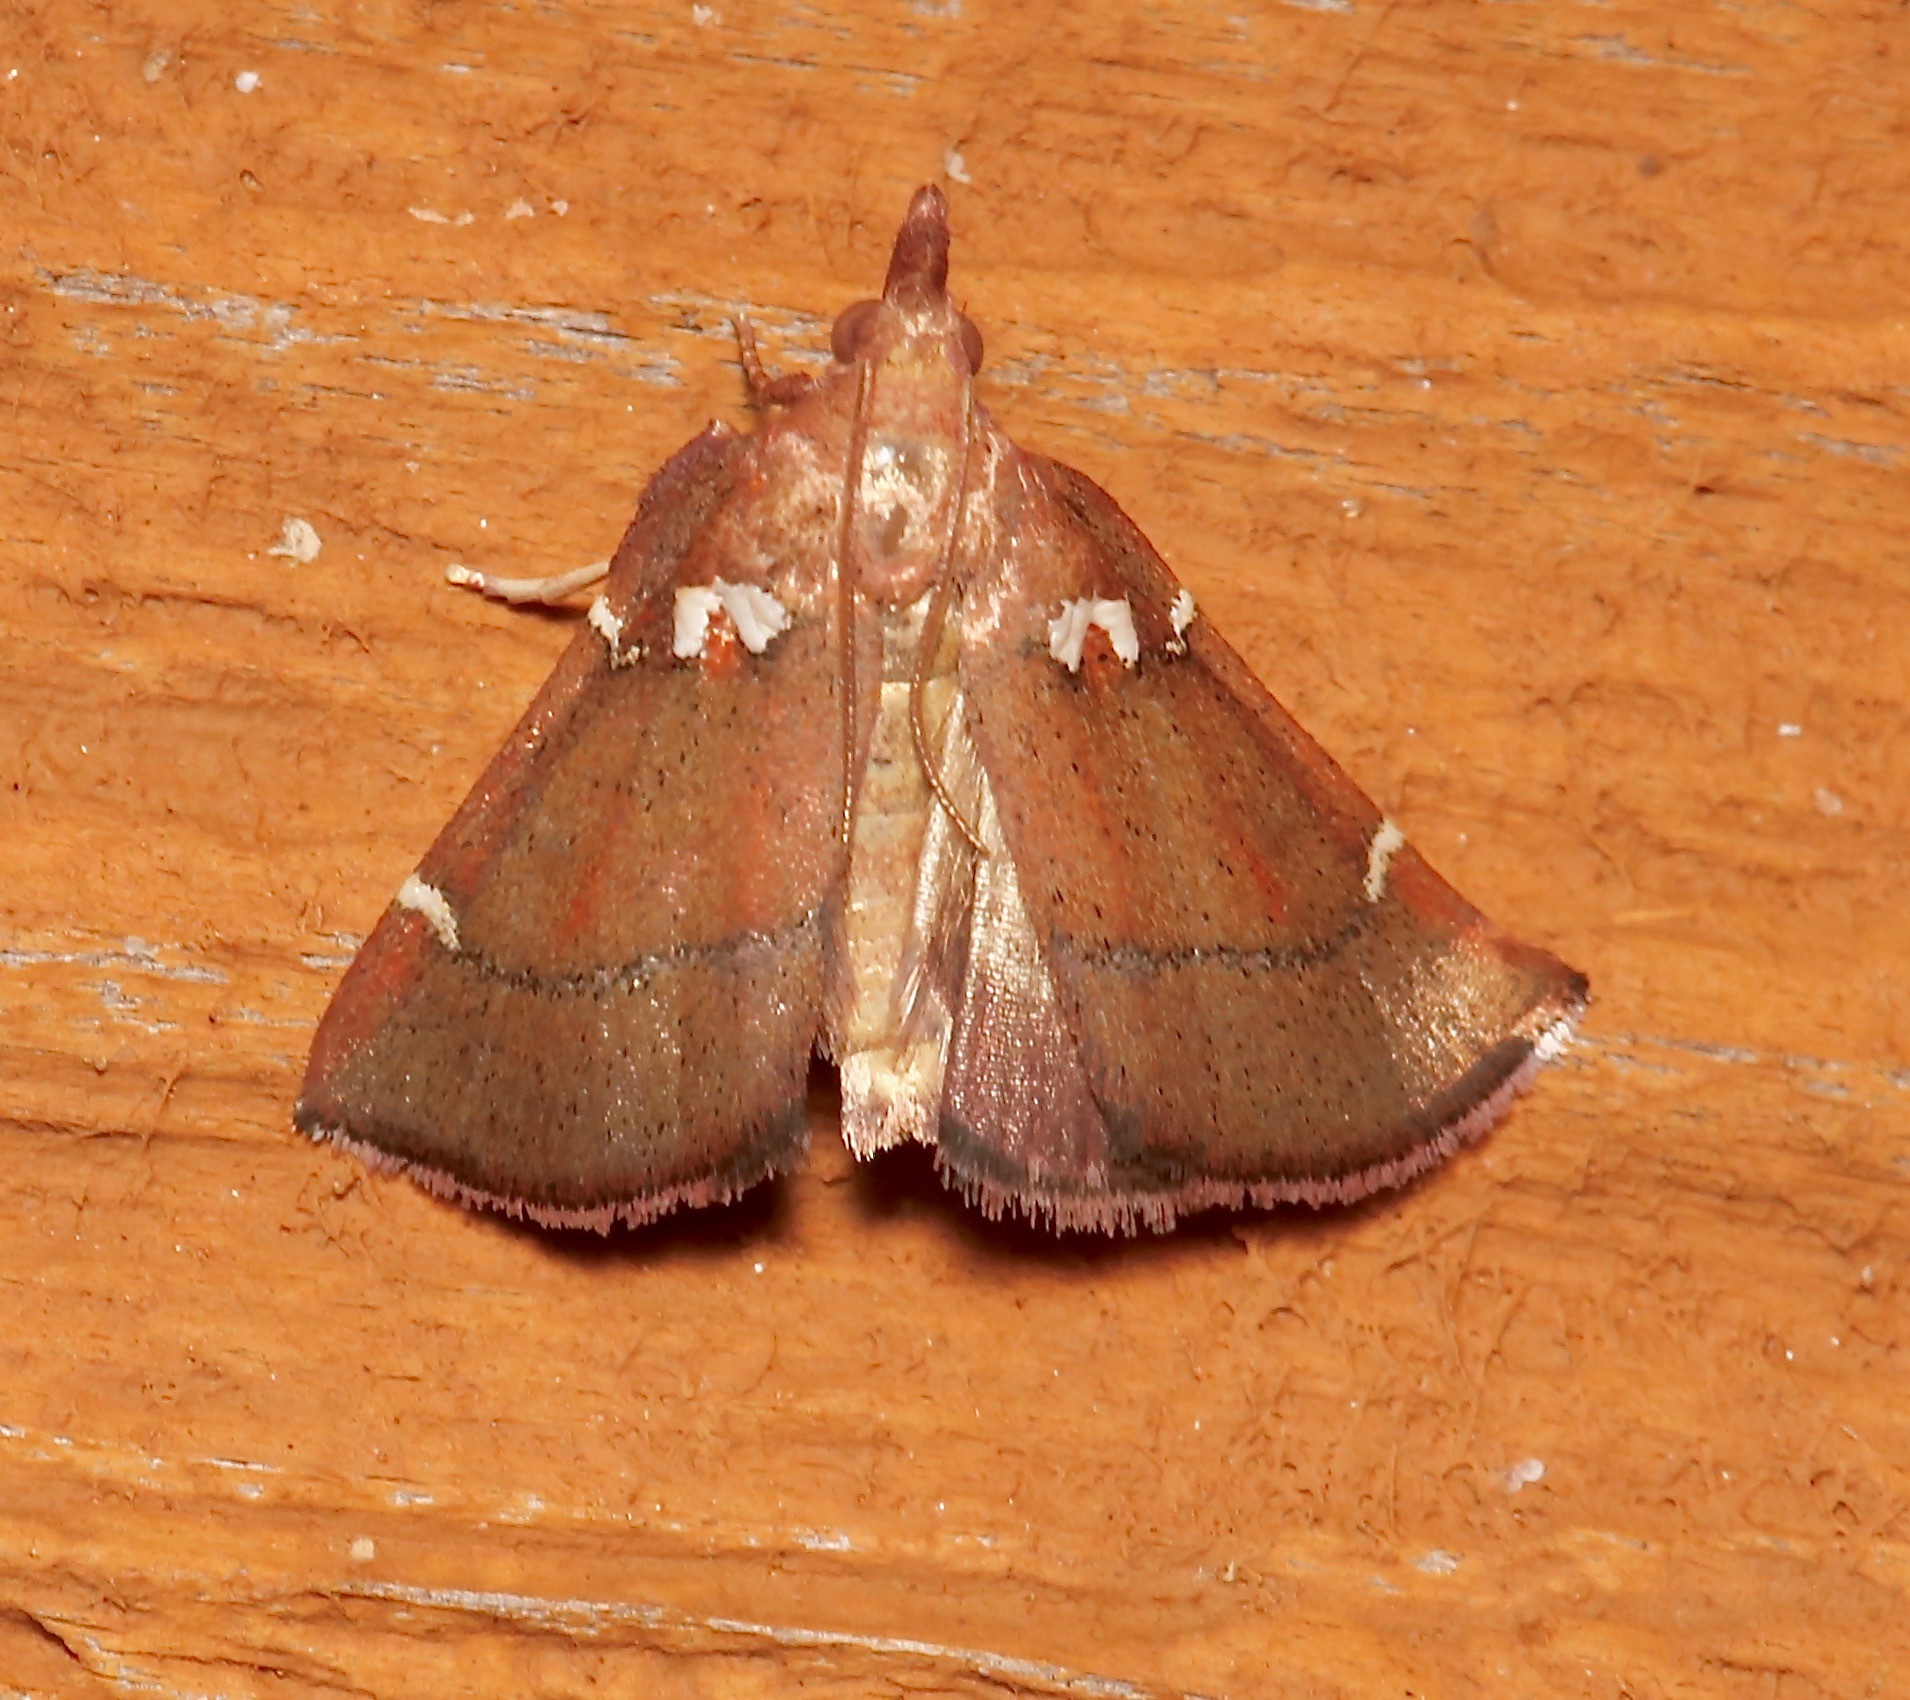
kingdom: Animalia
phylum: Arthropoda
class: Insecta
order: Lepidoptera
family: Pyralidae
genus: Lepidomys
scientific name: Lepidomys irrenosa
